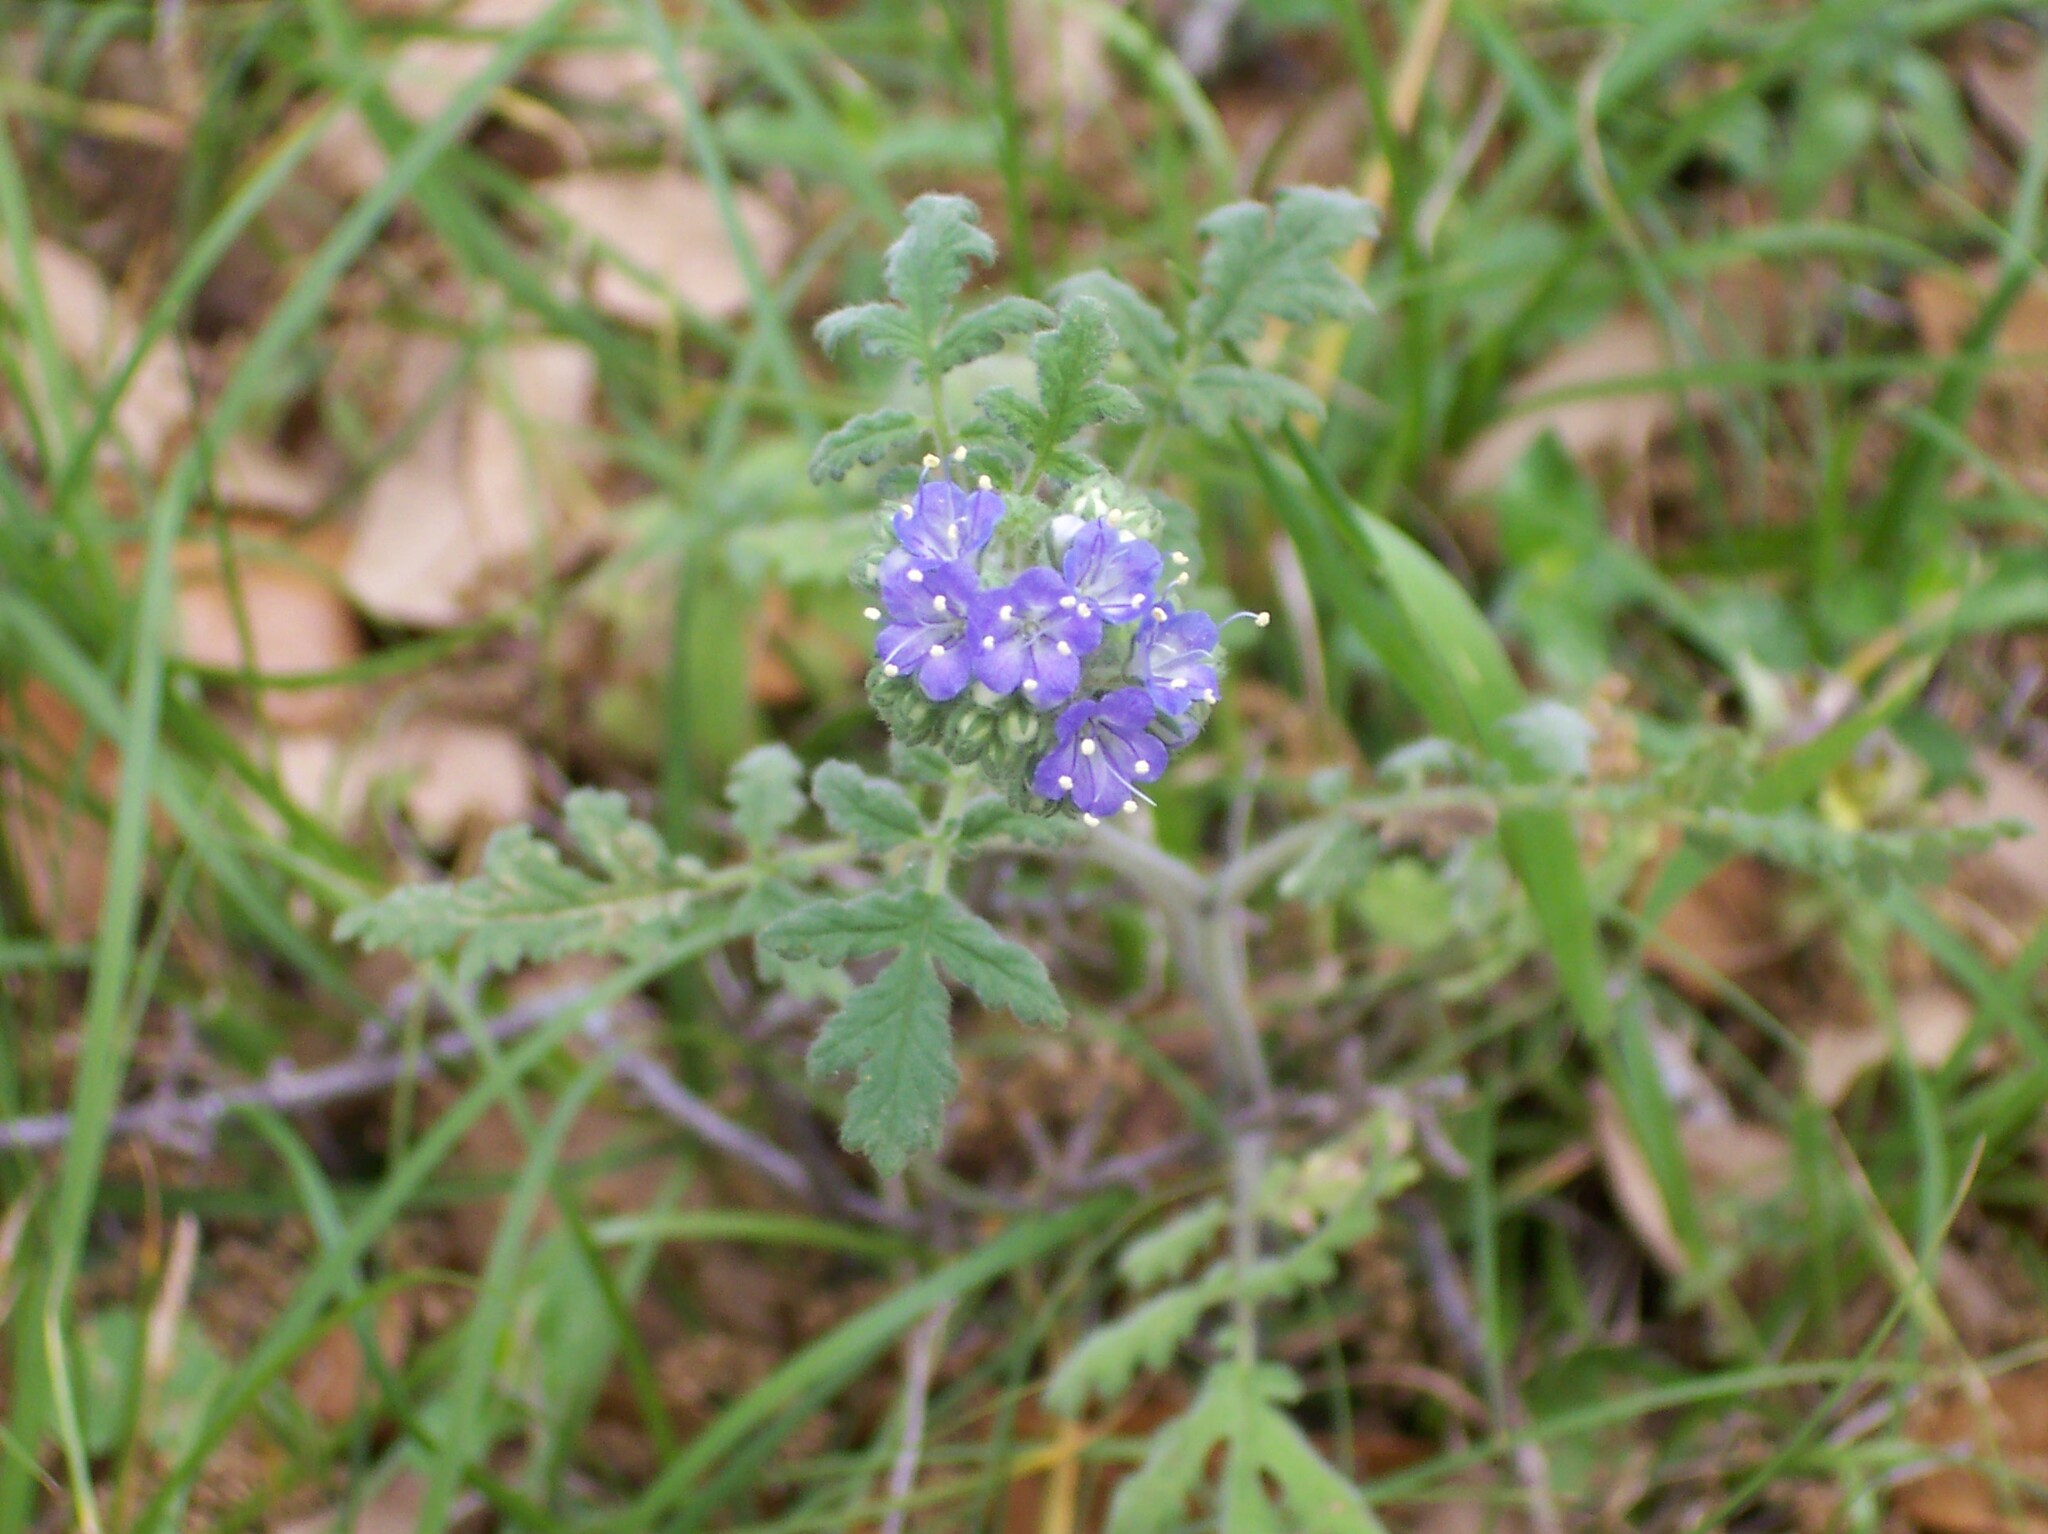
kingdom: Plantae
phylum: Tracheophyta
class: Magnoliopsida
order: Boraginales
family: Hydrophyllaceae
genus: Phacelia
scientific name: Phacelia congesta
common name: Blue curls
